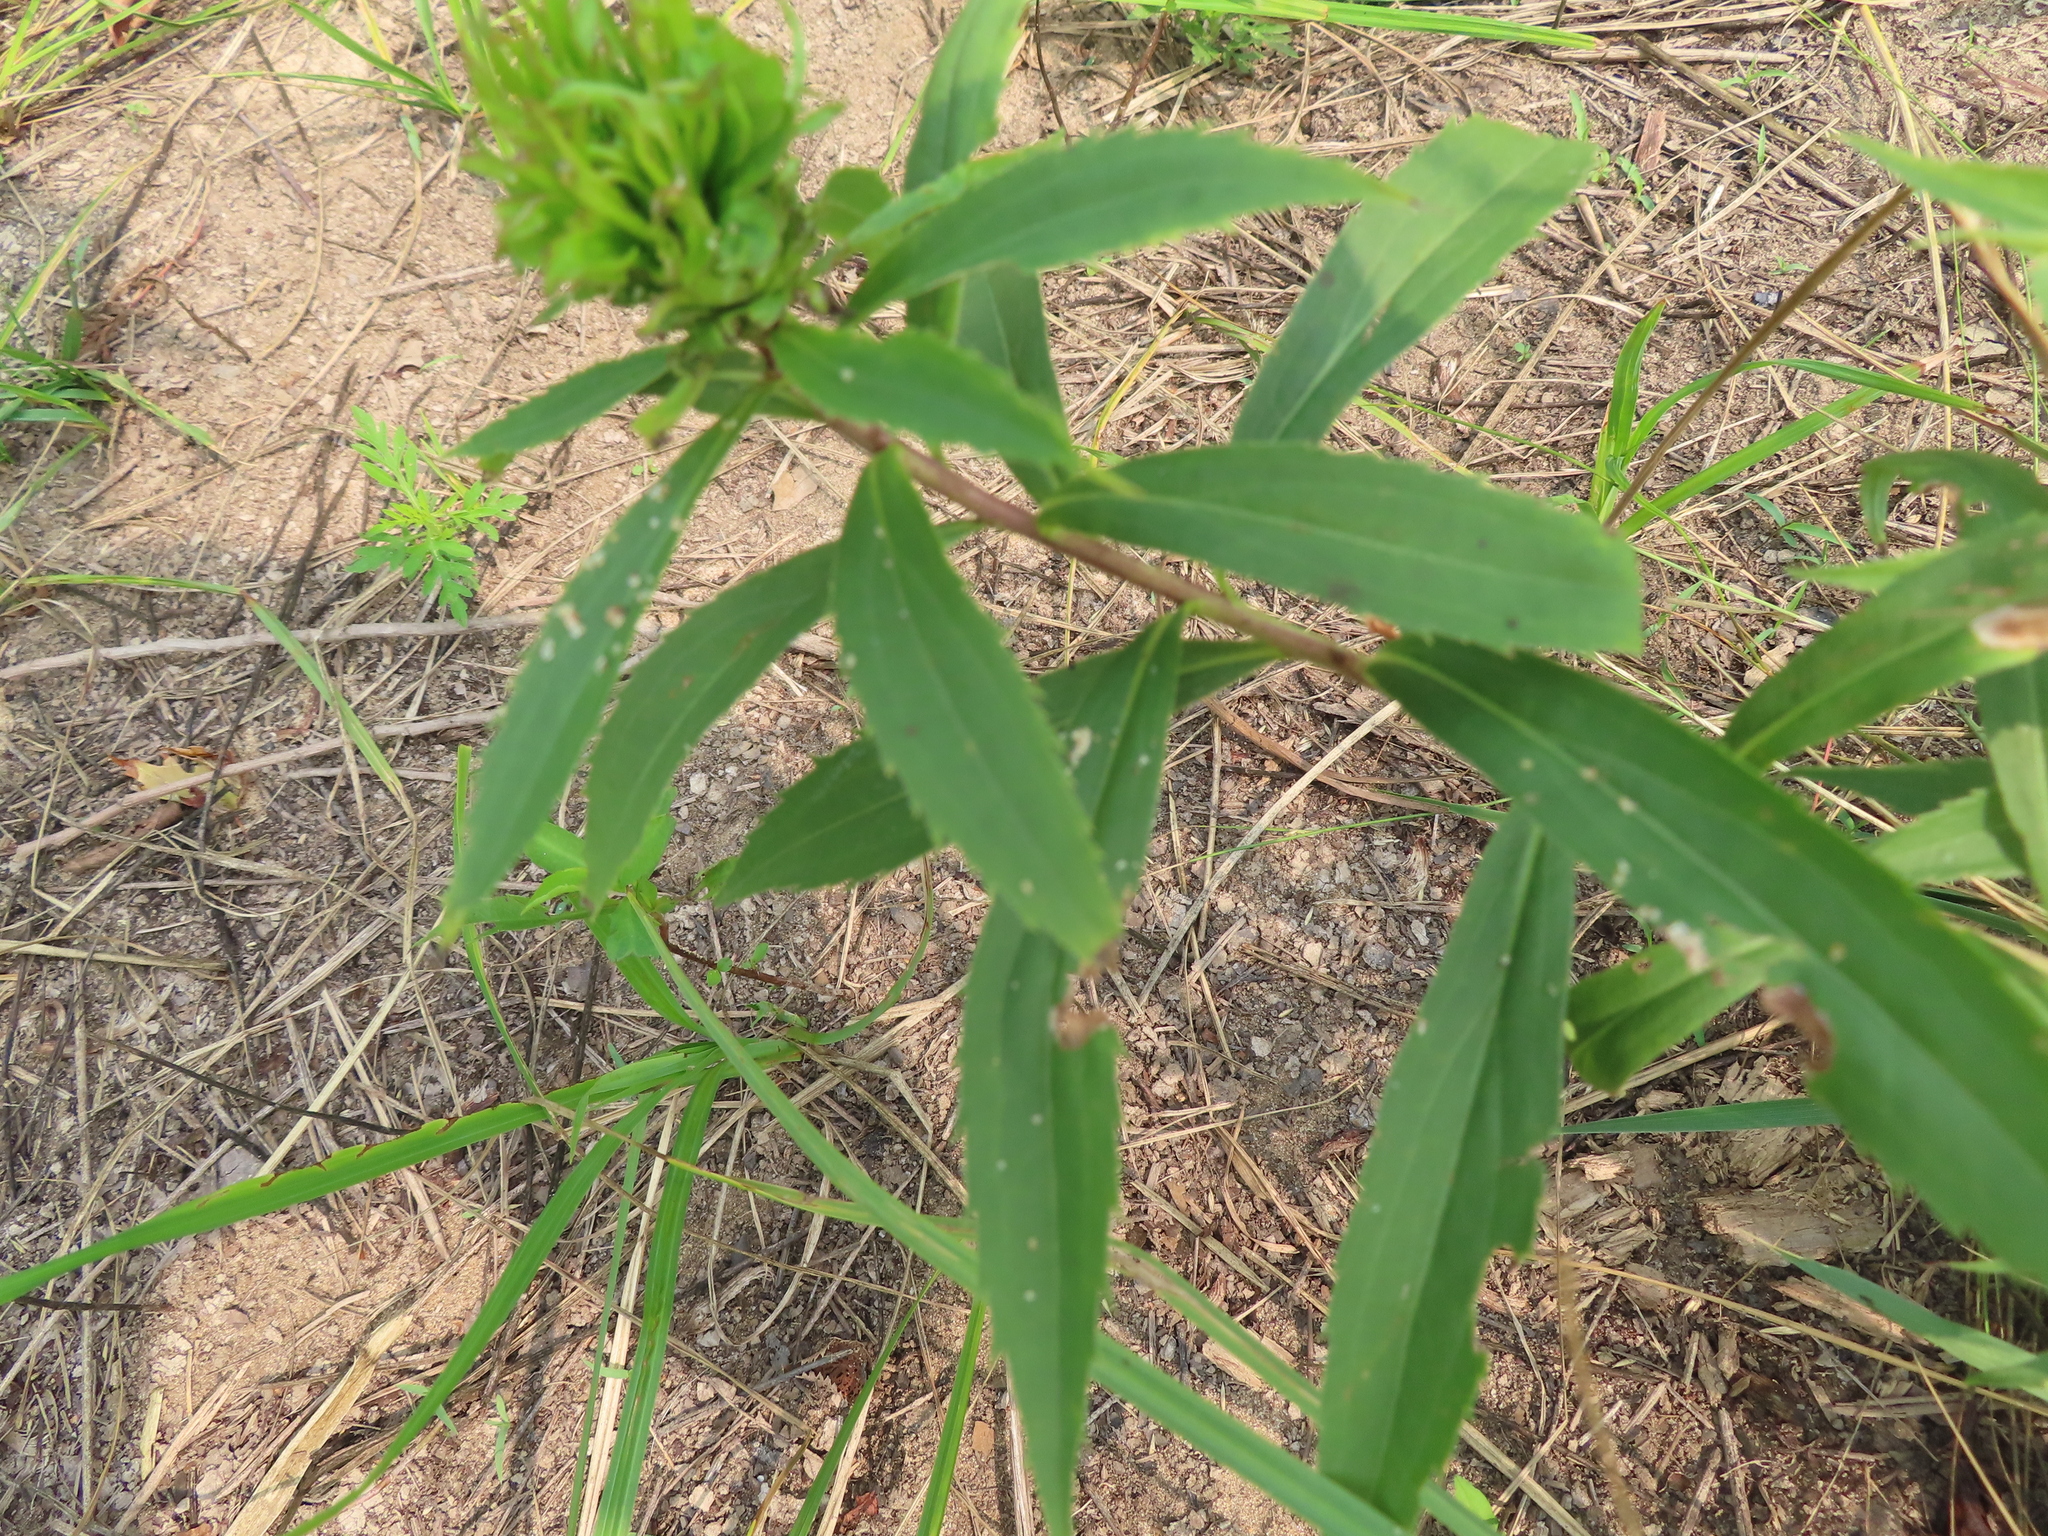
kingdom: Animalia
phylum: Arthropoda
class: Insecta
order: Diptera
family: Cecidomyiidae
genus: Rhopalomyia
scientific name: Rhopalomyia capitata
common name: Giant goldenrod bunch gall midge
